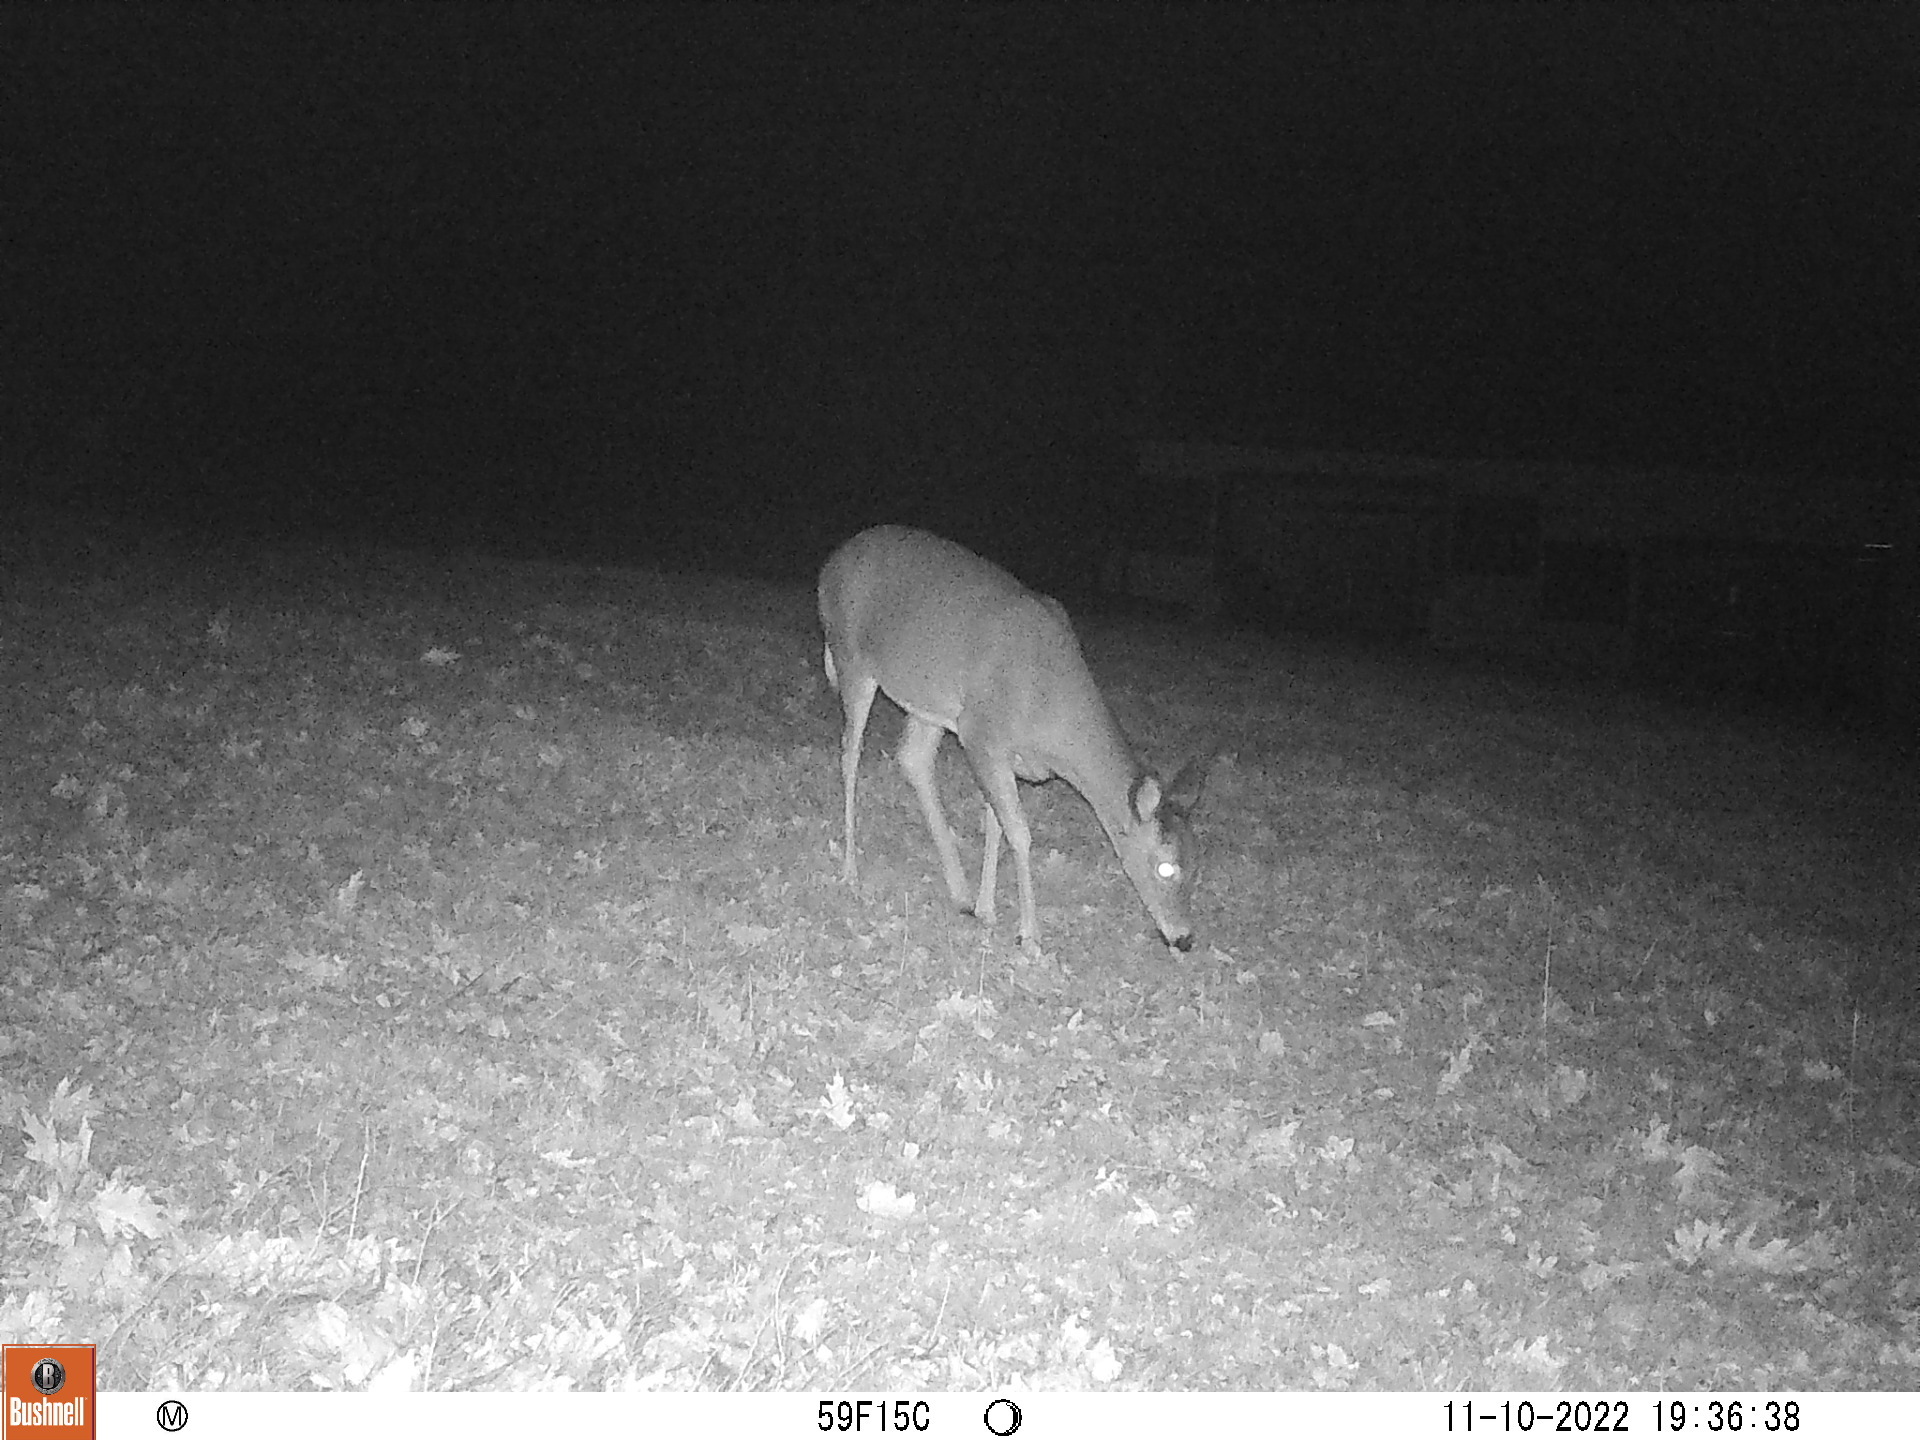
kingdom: Animalia
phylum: Chordata
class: Mammalia
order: Artiodactyla
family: Cervidae
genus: Odocoileus
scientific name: Odocoileus virginianus
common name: White-tailed deer
